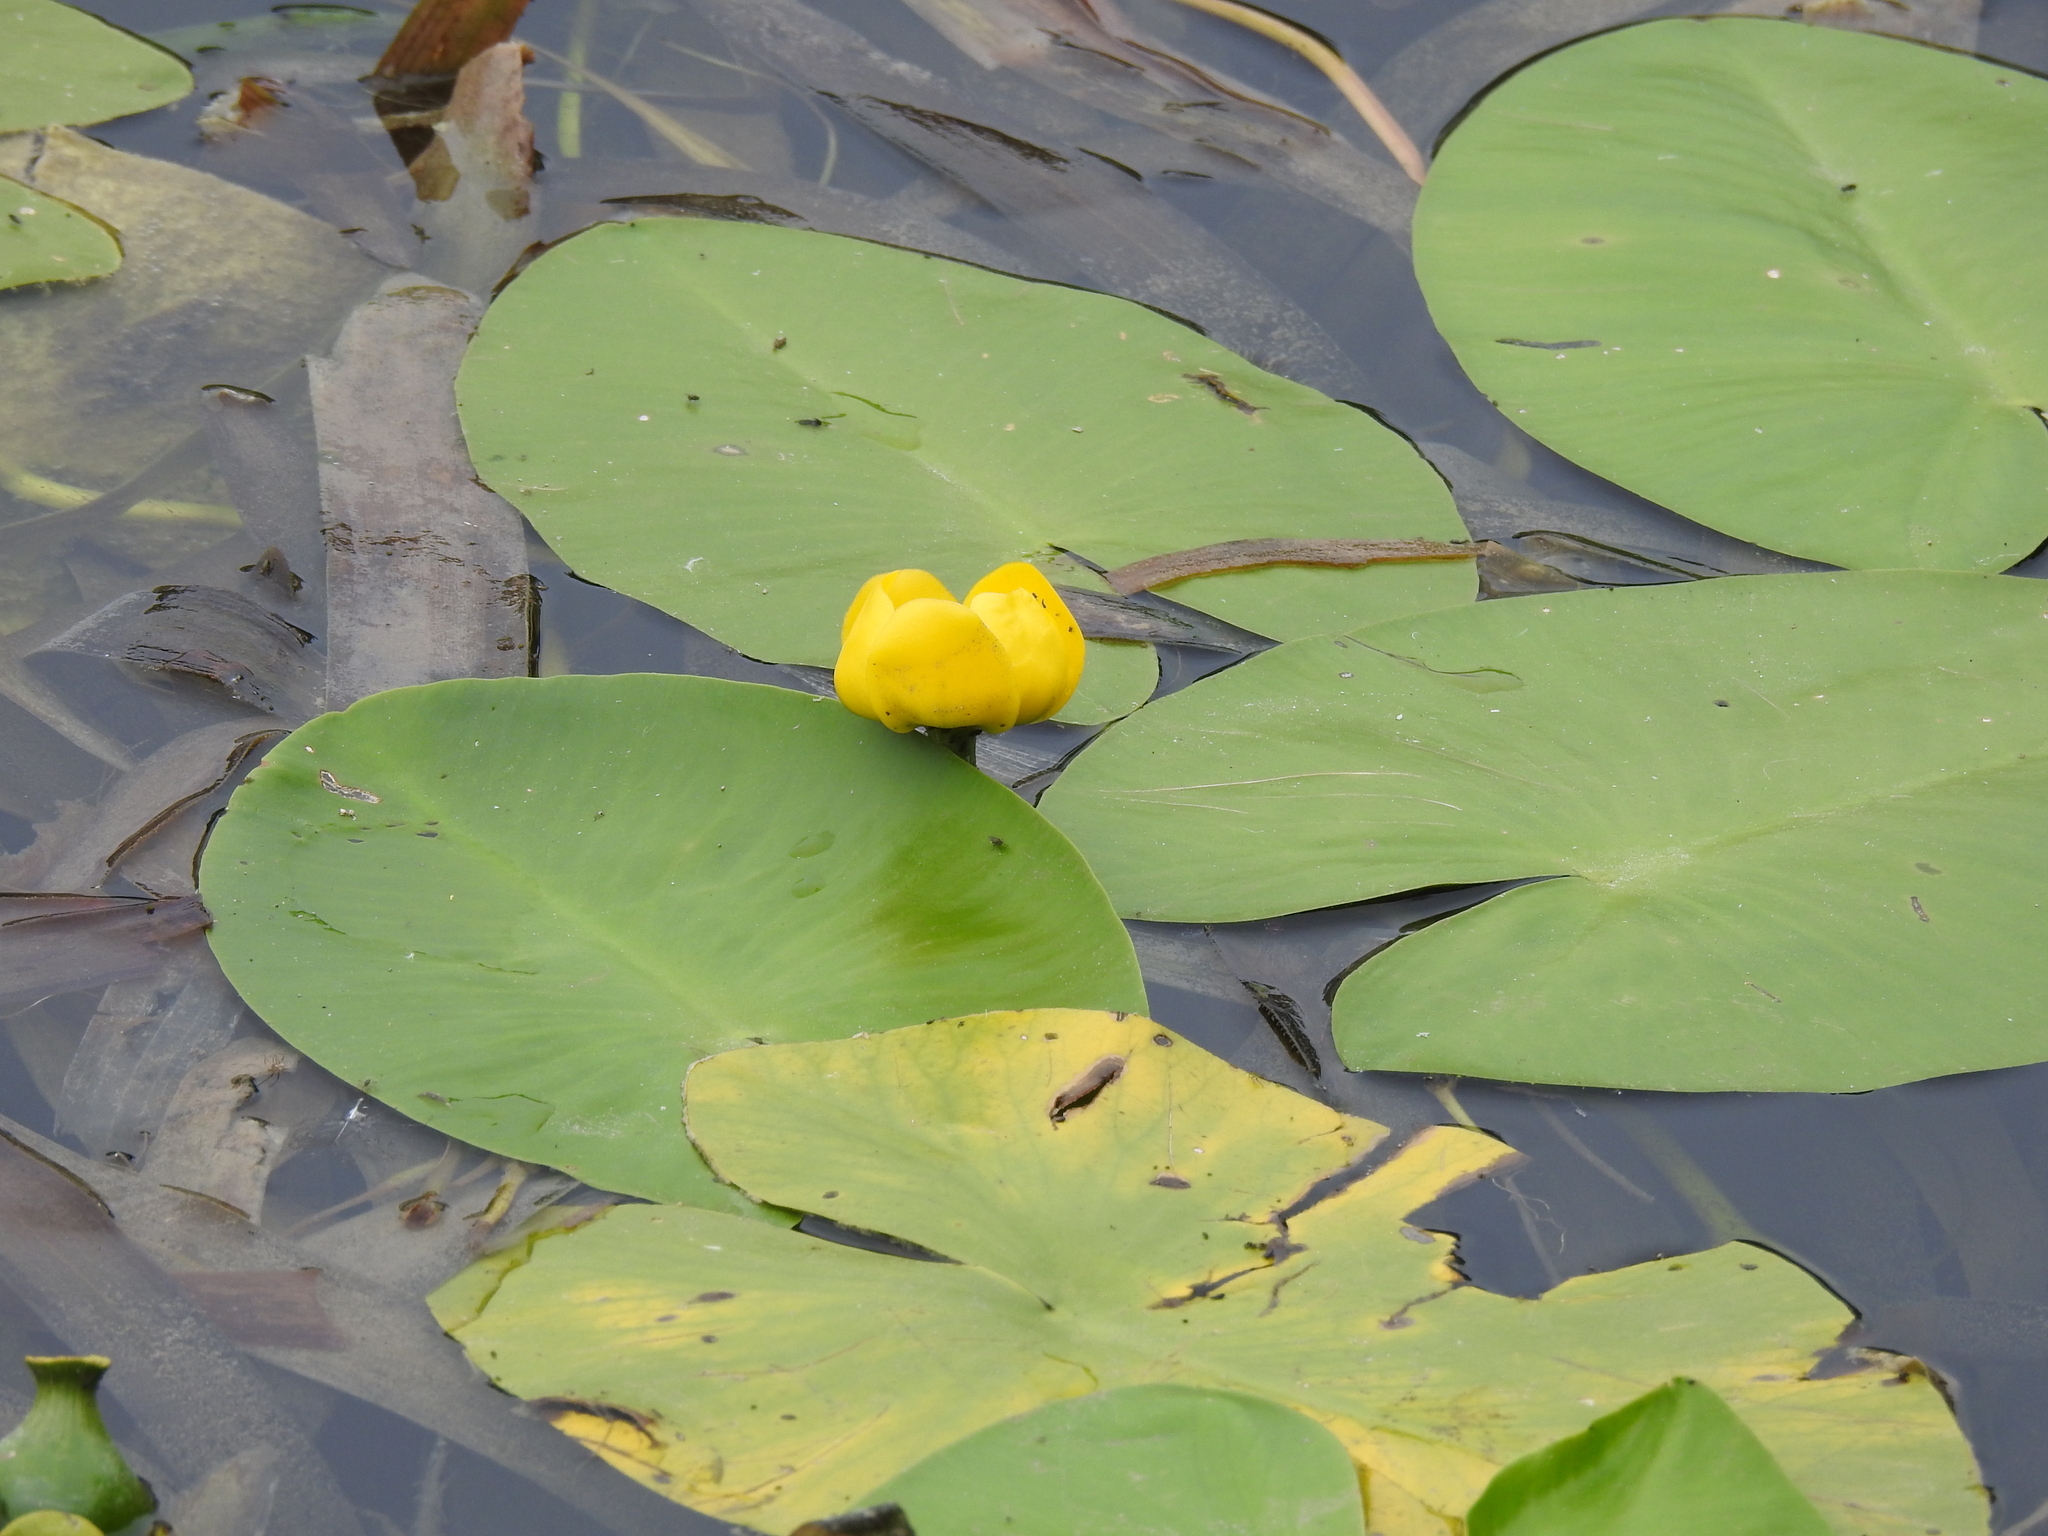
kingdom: Plantae
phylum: Tracheophyta
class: Magnoliopsida
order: Nymphaeales
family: Nymphaeaceae
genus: Nuphar
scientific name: Nuphar lutea
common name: Yellow water-lily
